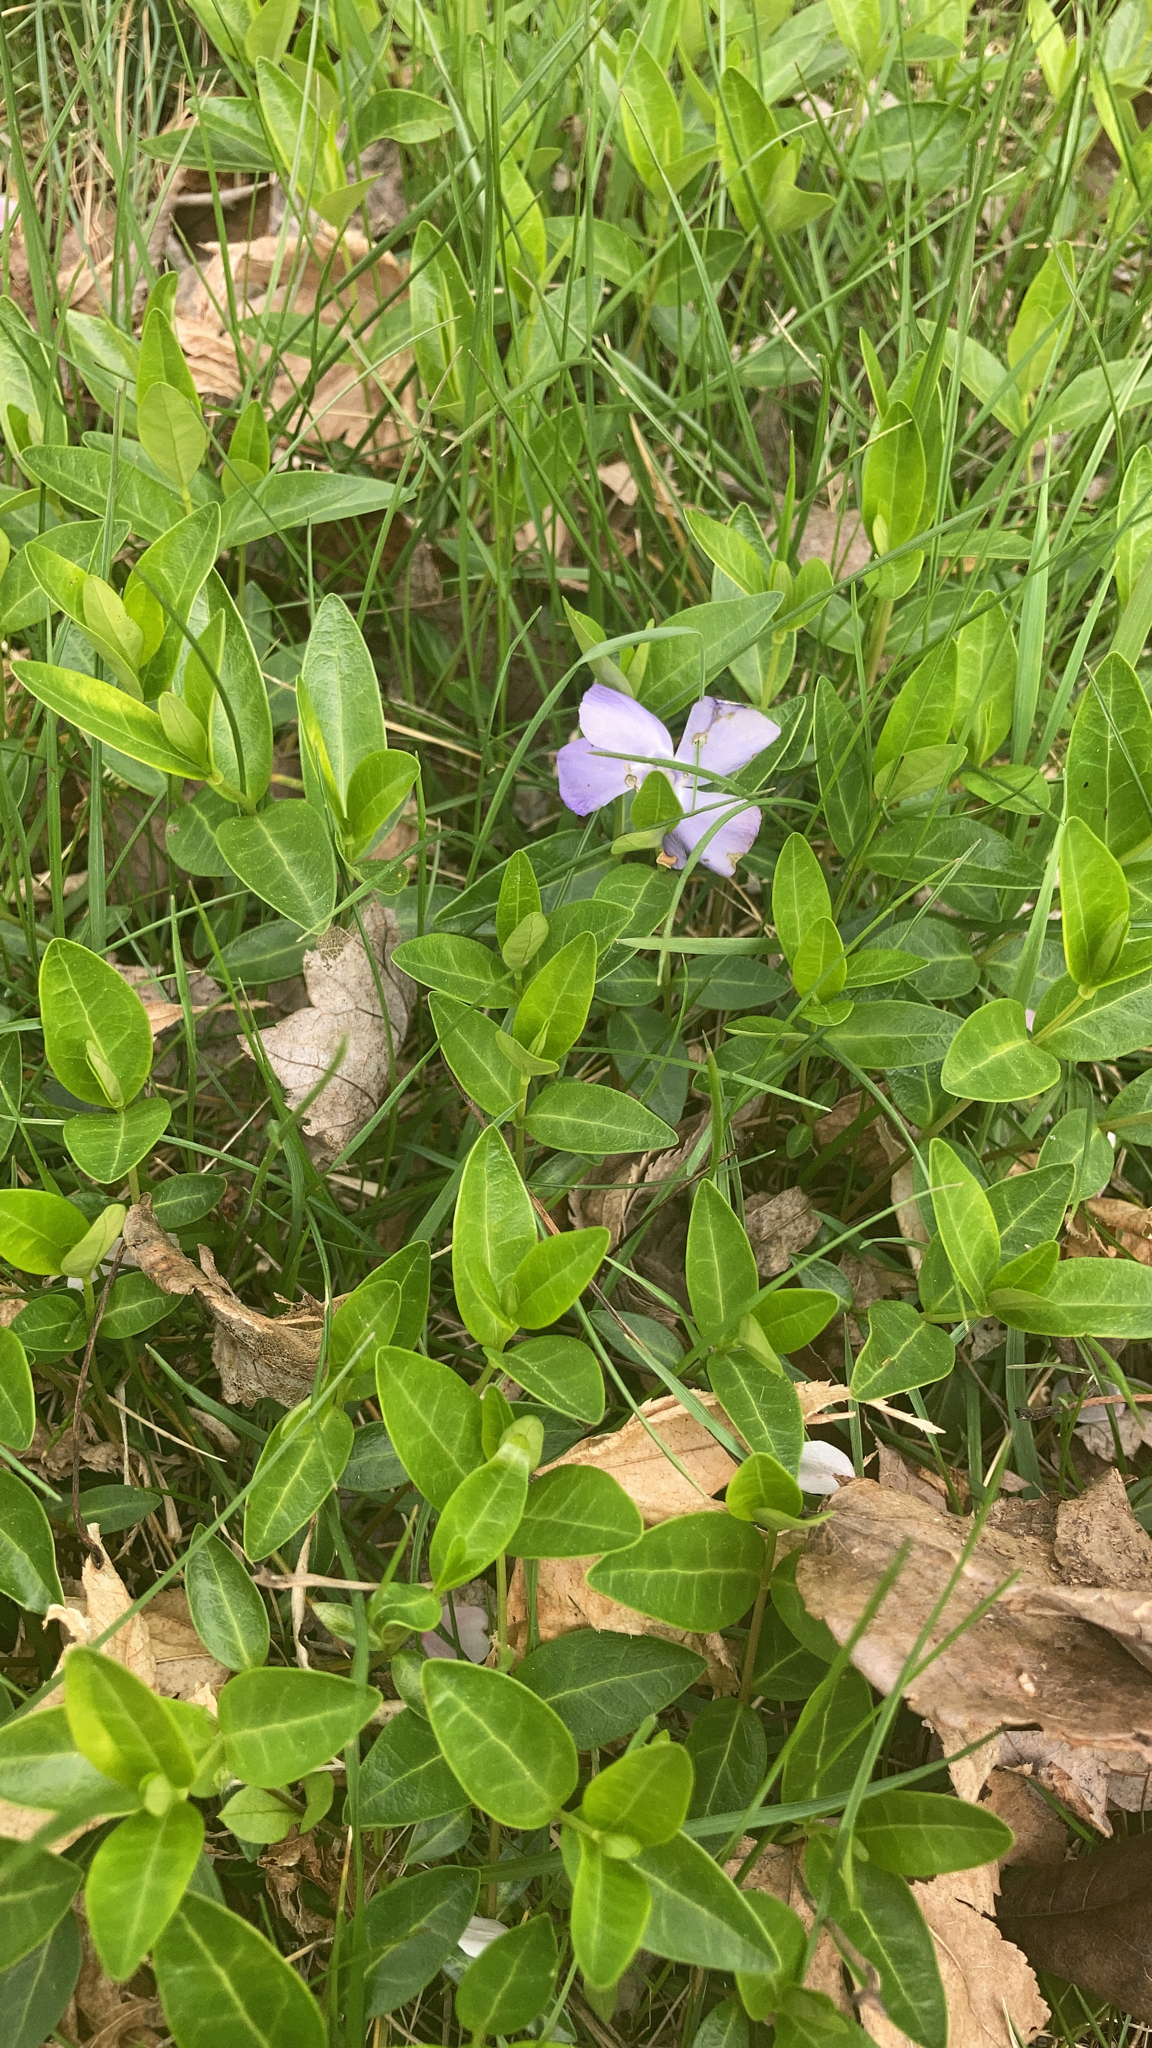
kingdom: Plantae
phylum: Tracheophyta
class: Magnoliopsida
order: Gentianales
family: Apocynaceae
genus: Vinca
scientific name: Vinca minor
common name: Lesser periwinkle
